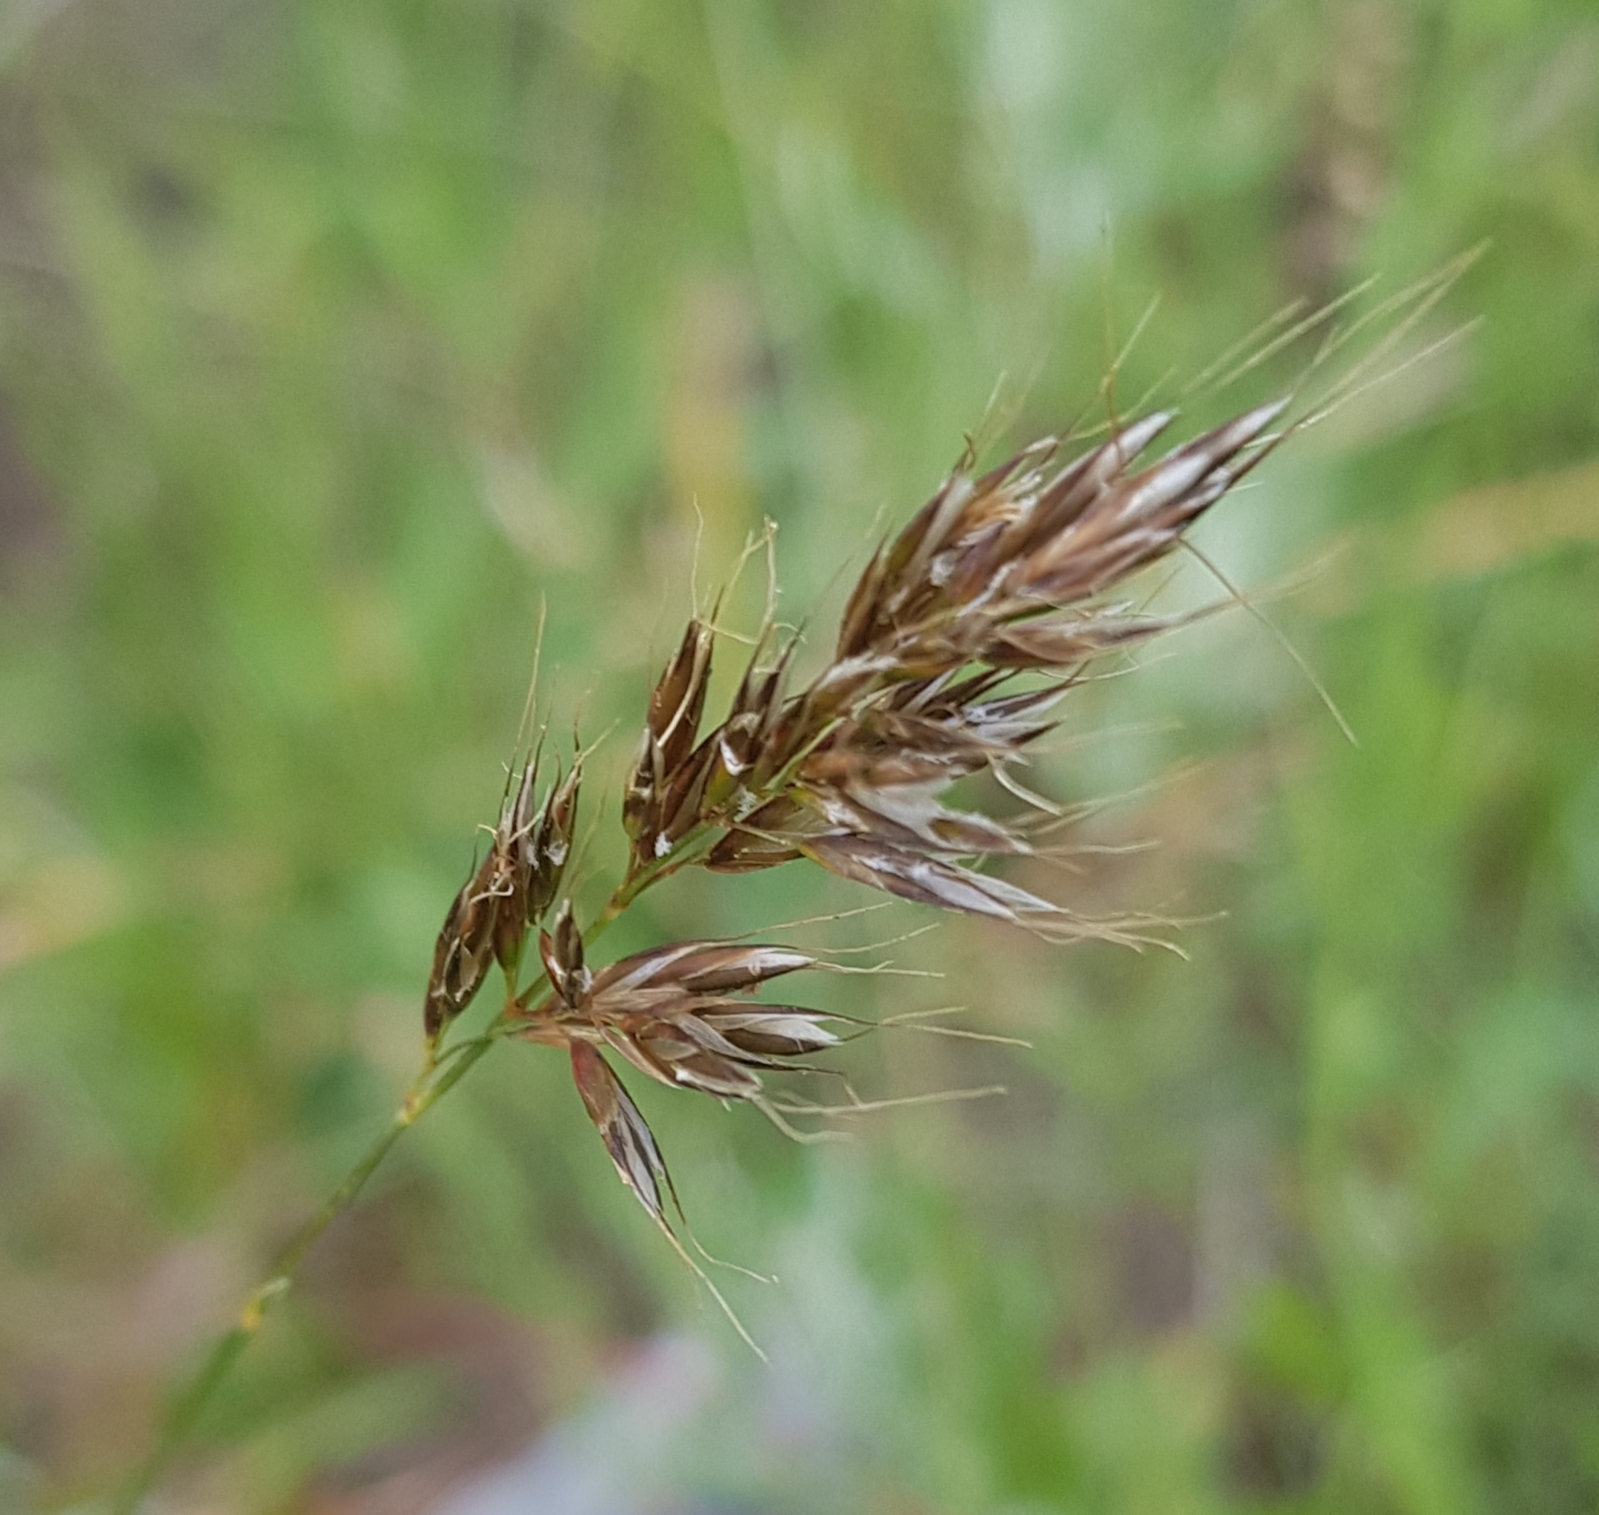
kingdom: Plantae
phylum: Tracheophyta
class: Liliopsida
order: Poales
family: Poaceae
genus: Trisetum
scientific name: Trisetum altaicum
